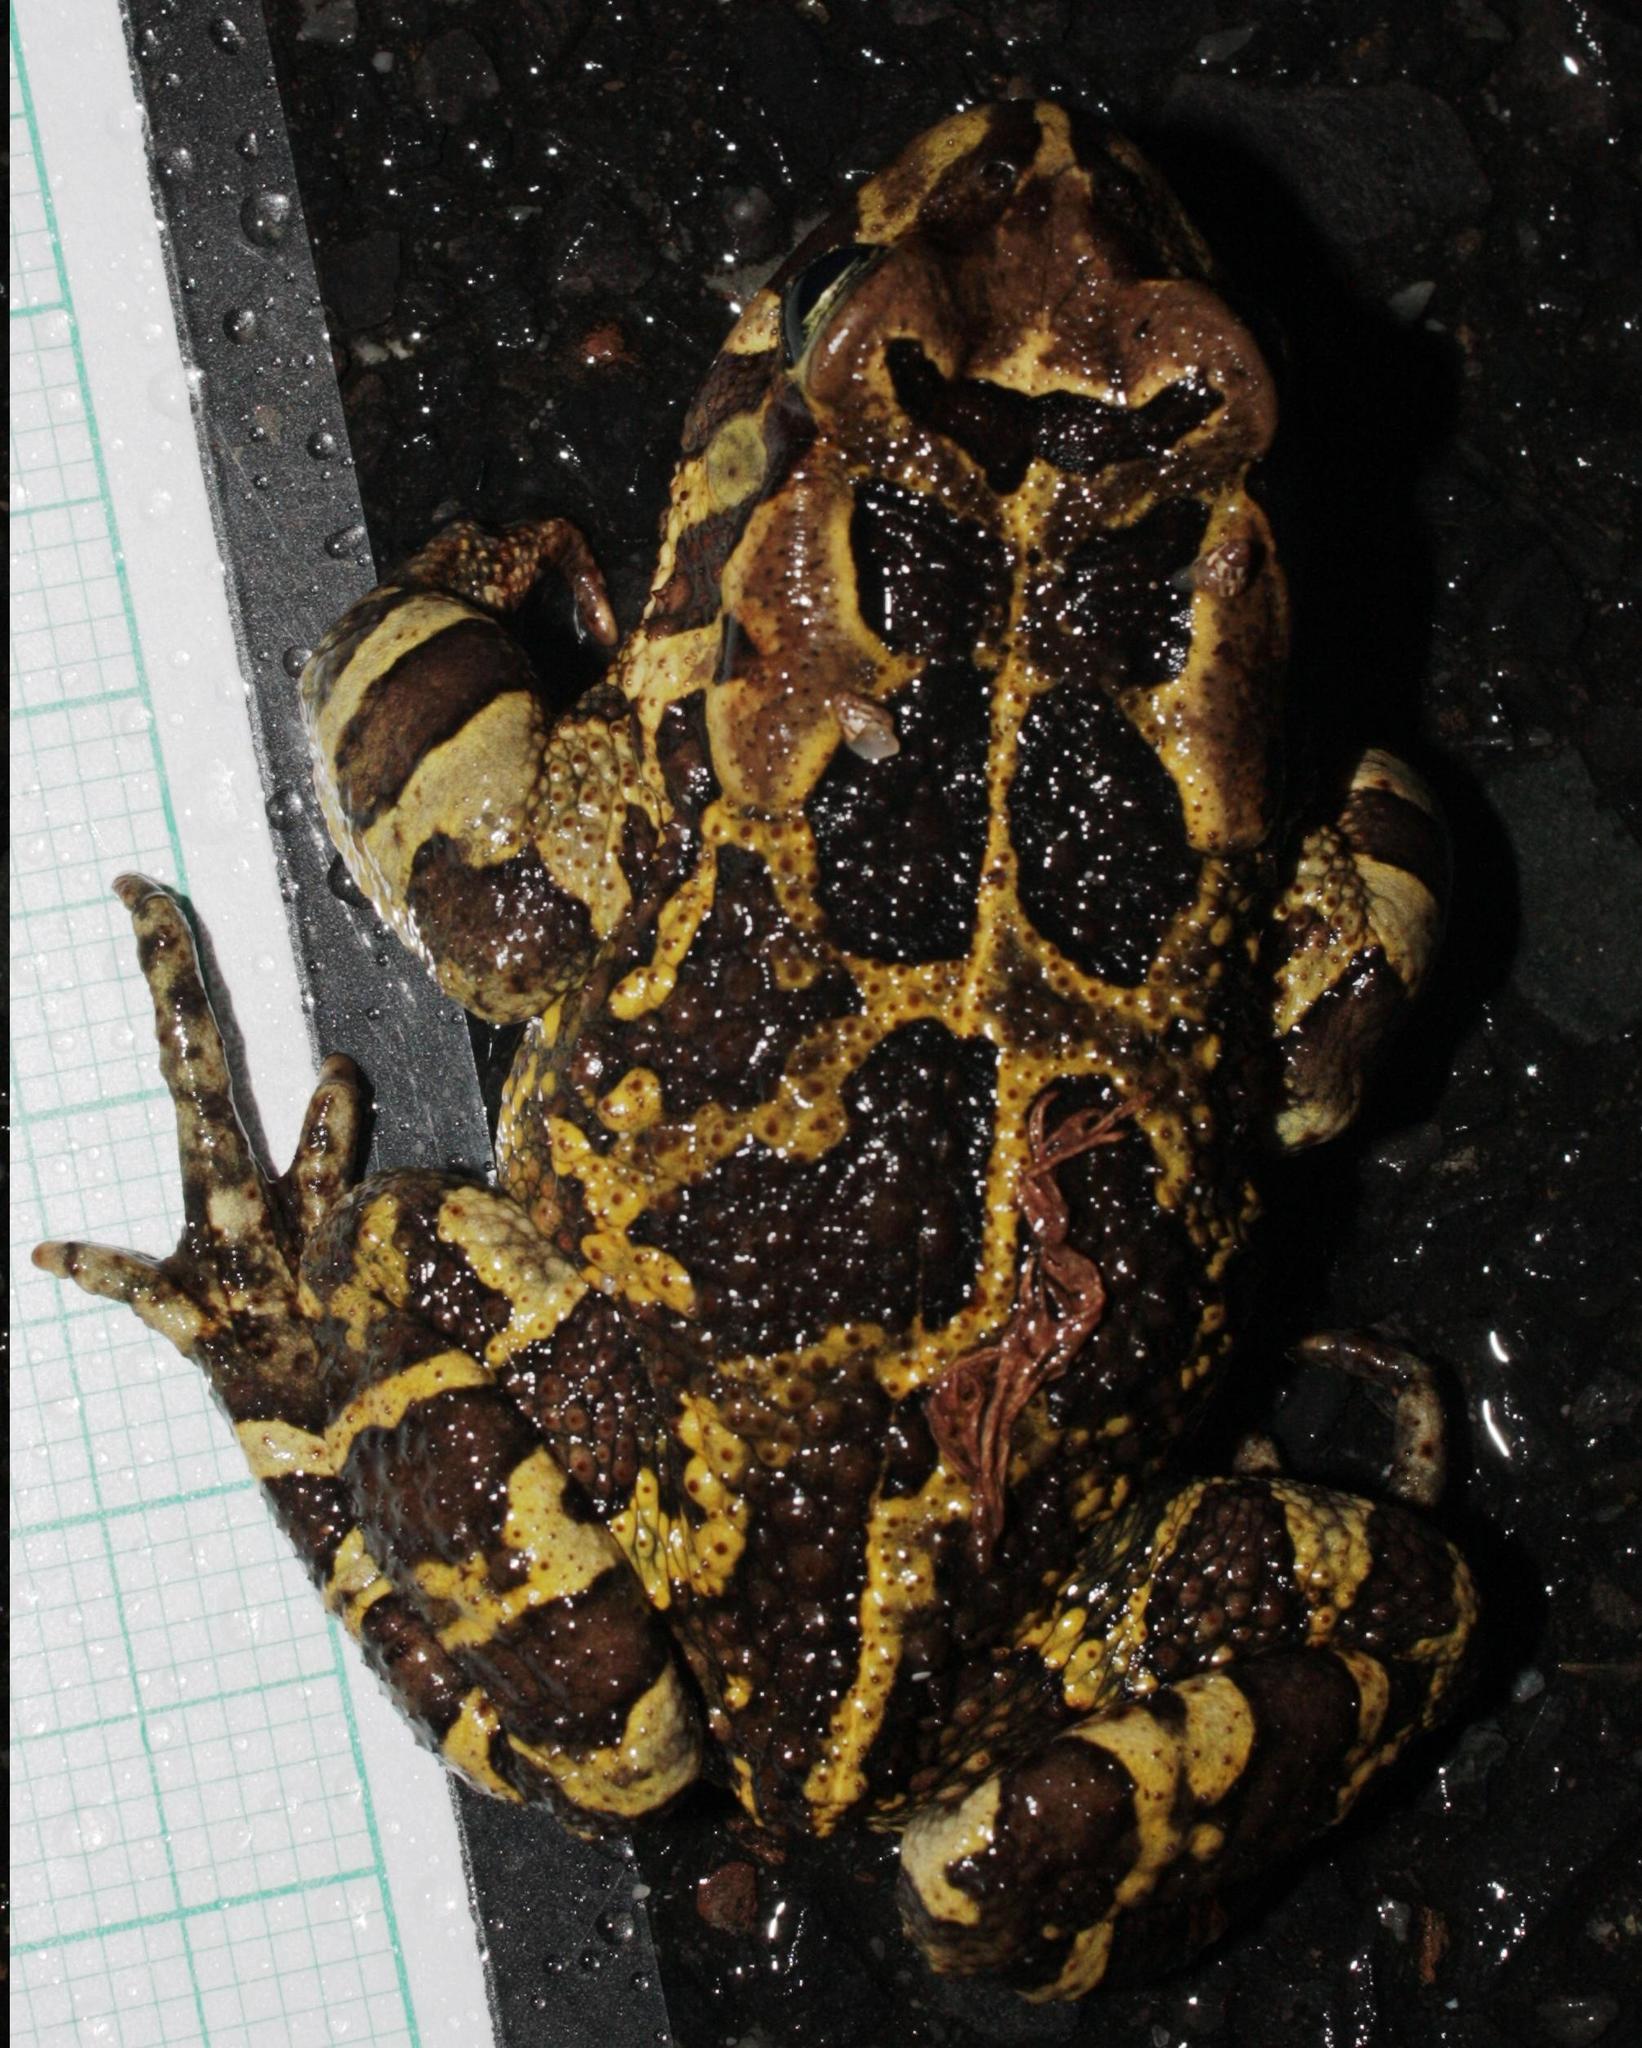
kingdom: Animalia
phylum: Chordata
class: Amphibia
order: Anura
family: Bufonidae
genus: Sclerophrys
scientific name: Sclerophrys pantherina
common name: Panther toad
